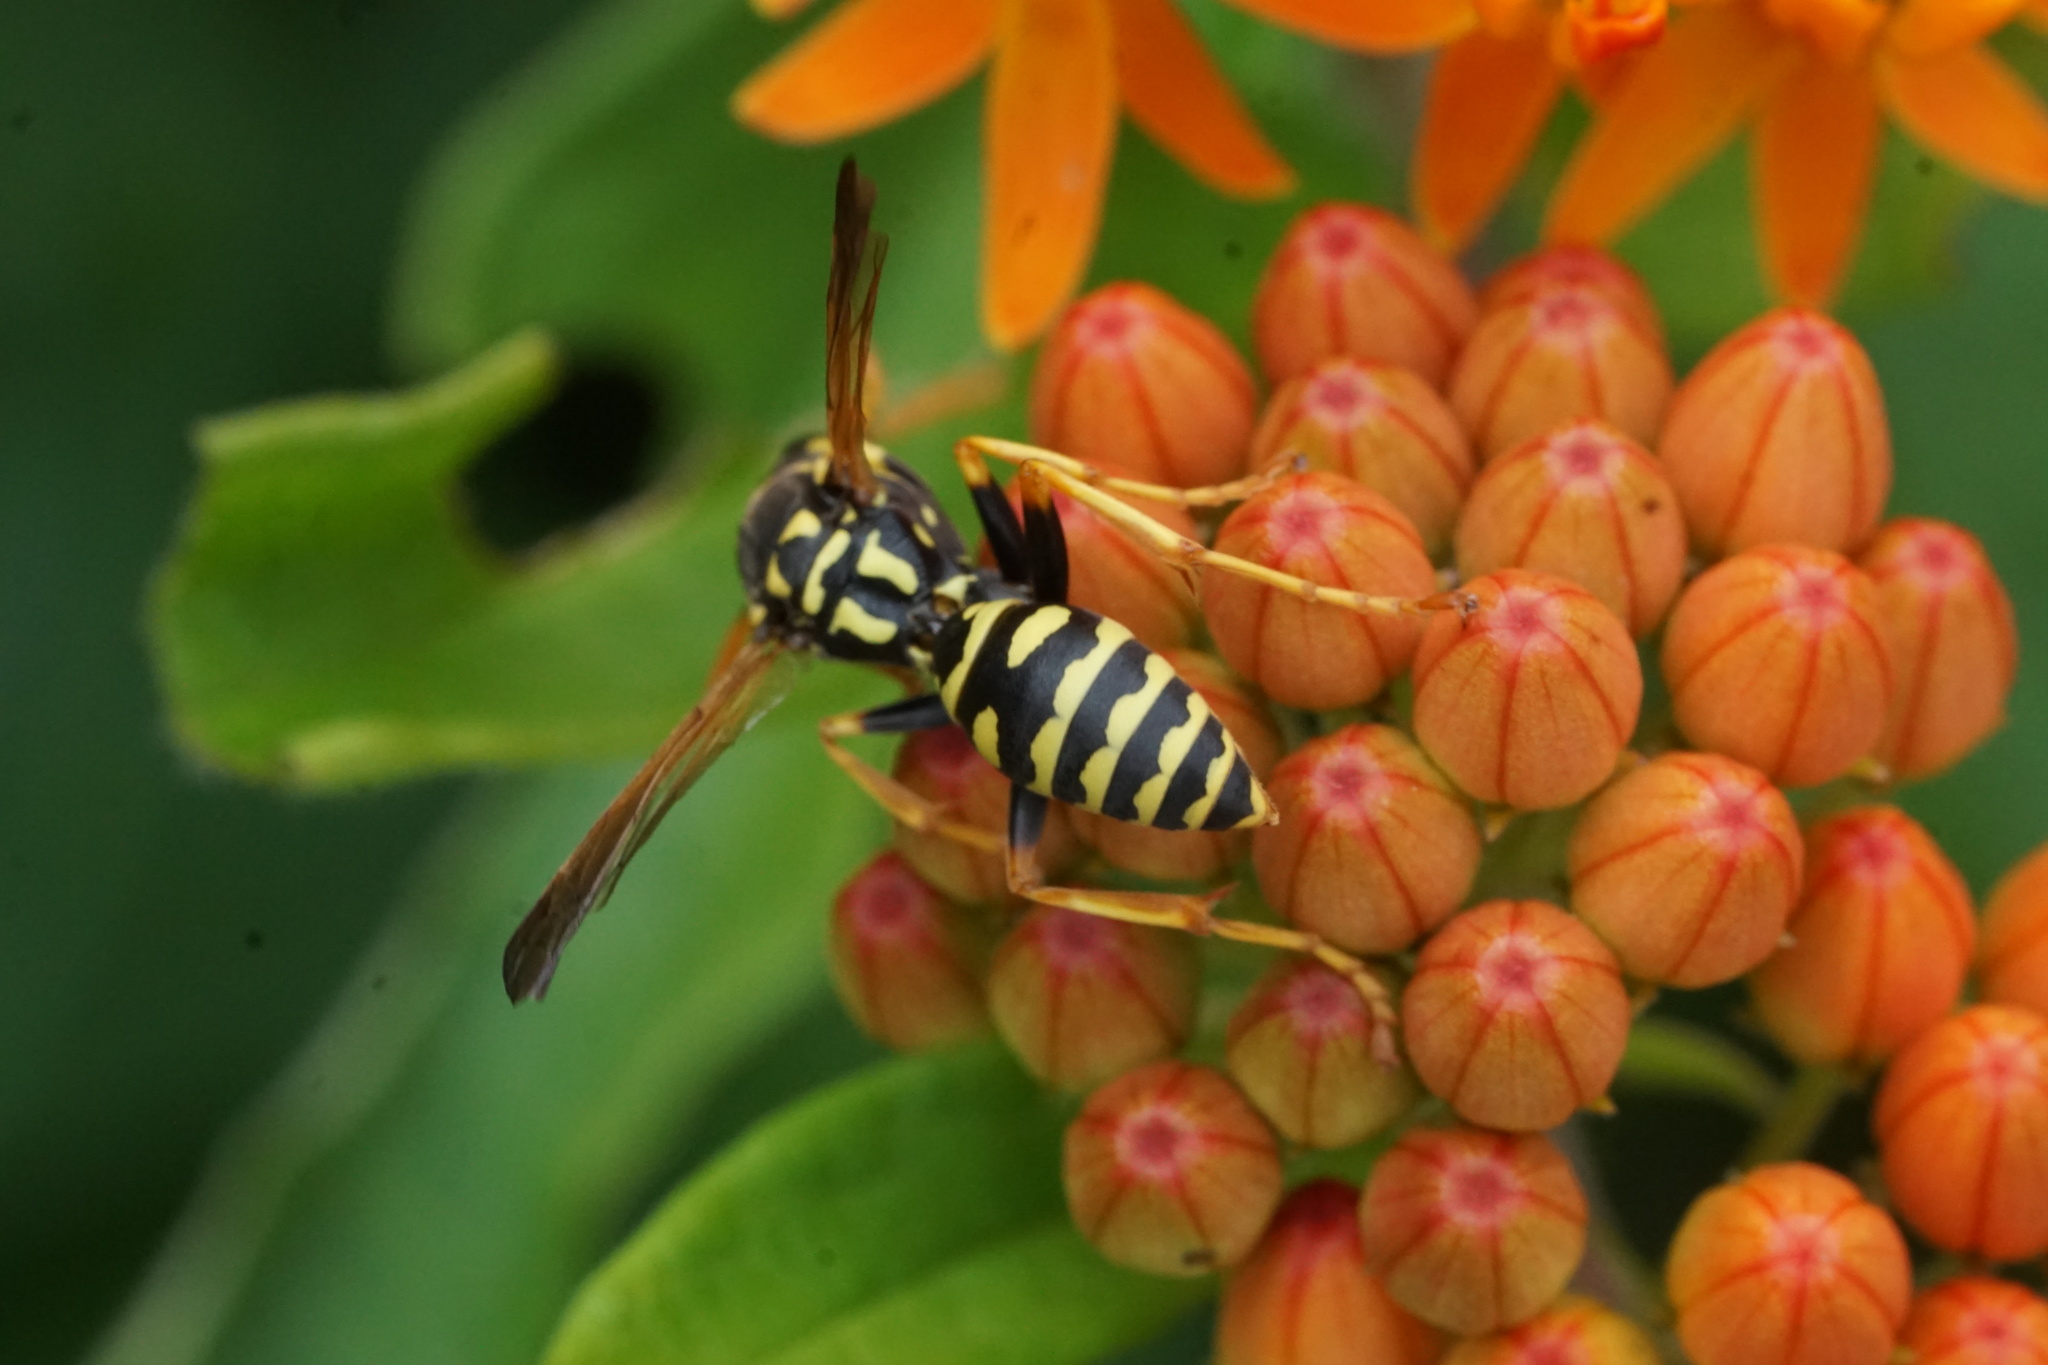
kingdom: Animalia
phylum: Arthropoda
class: Insecta
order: Hymenoptera
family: Eumenidae
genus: Polistes
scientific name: Polistes dominula
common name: Paper wasp
